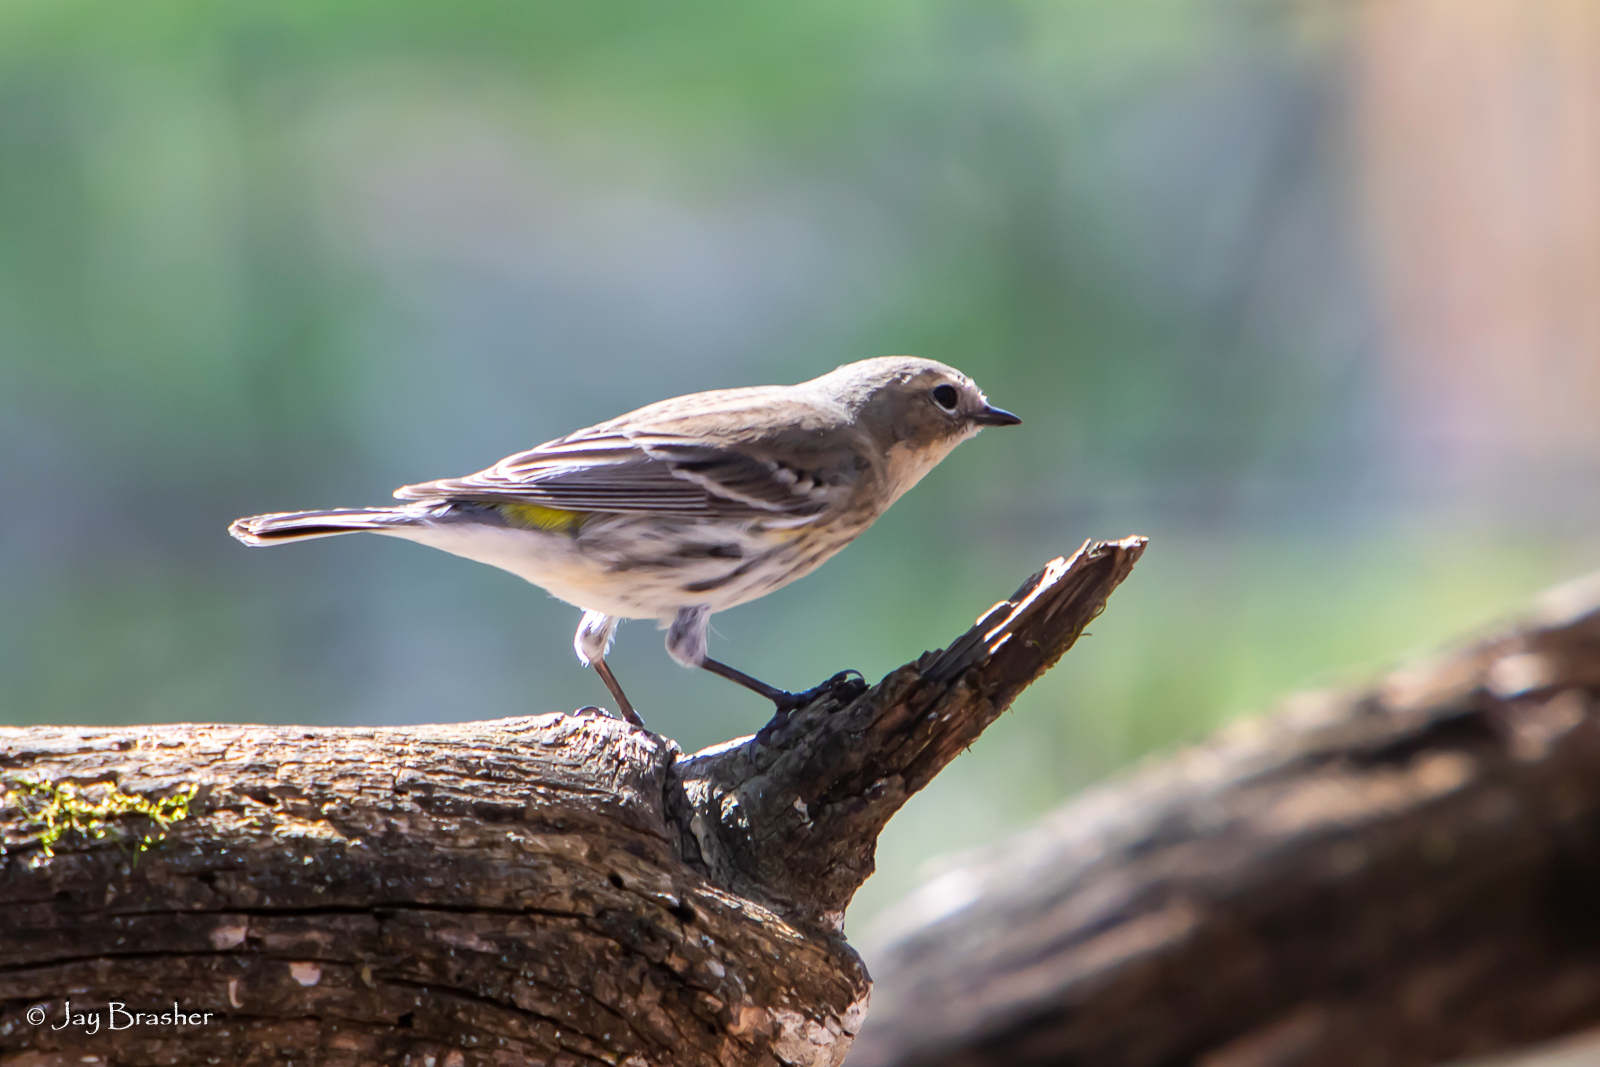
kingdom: Animalia
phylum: Chordata
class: Aves
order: Passeriformes
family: Parulidae
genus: Setophaga
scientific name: Setophaga coronata
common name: Myrtle warbler
